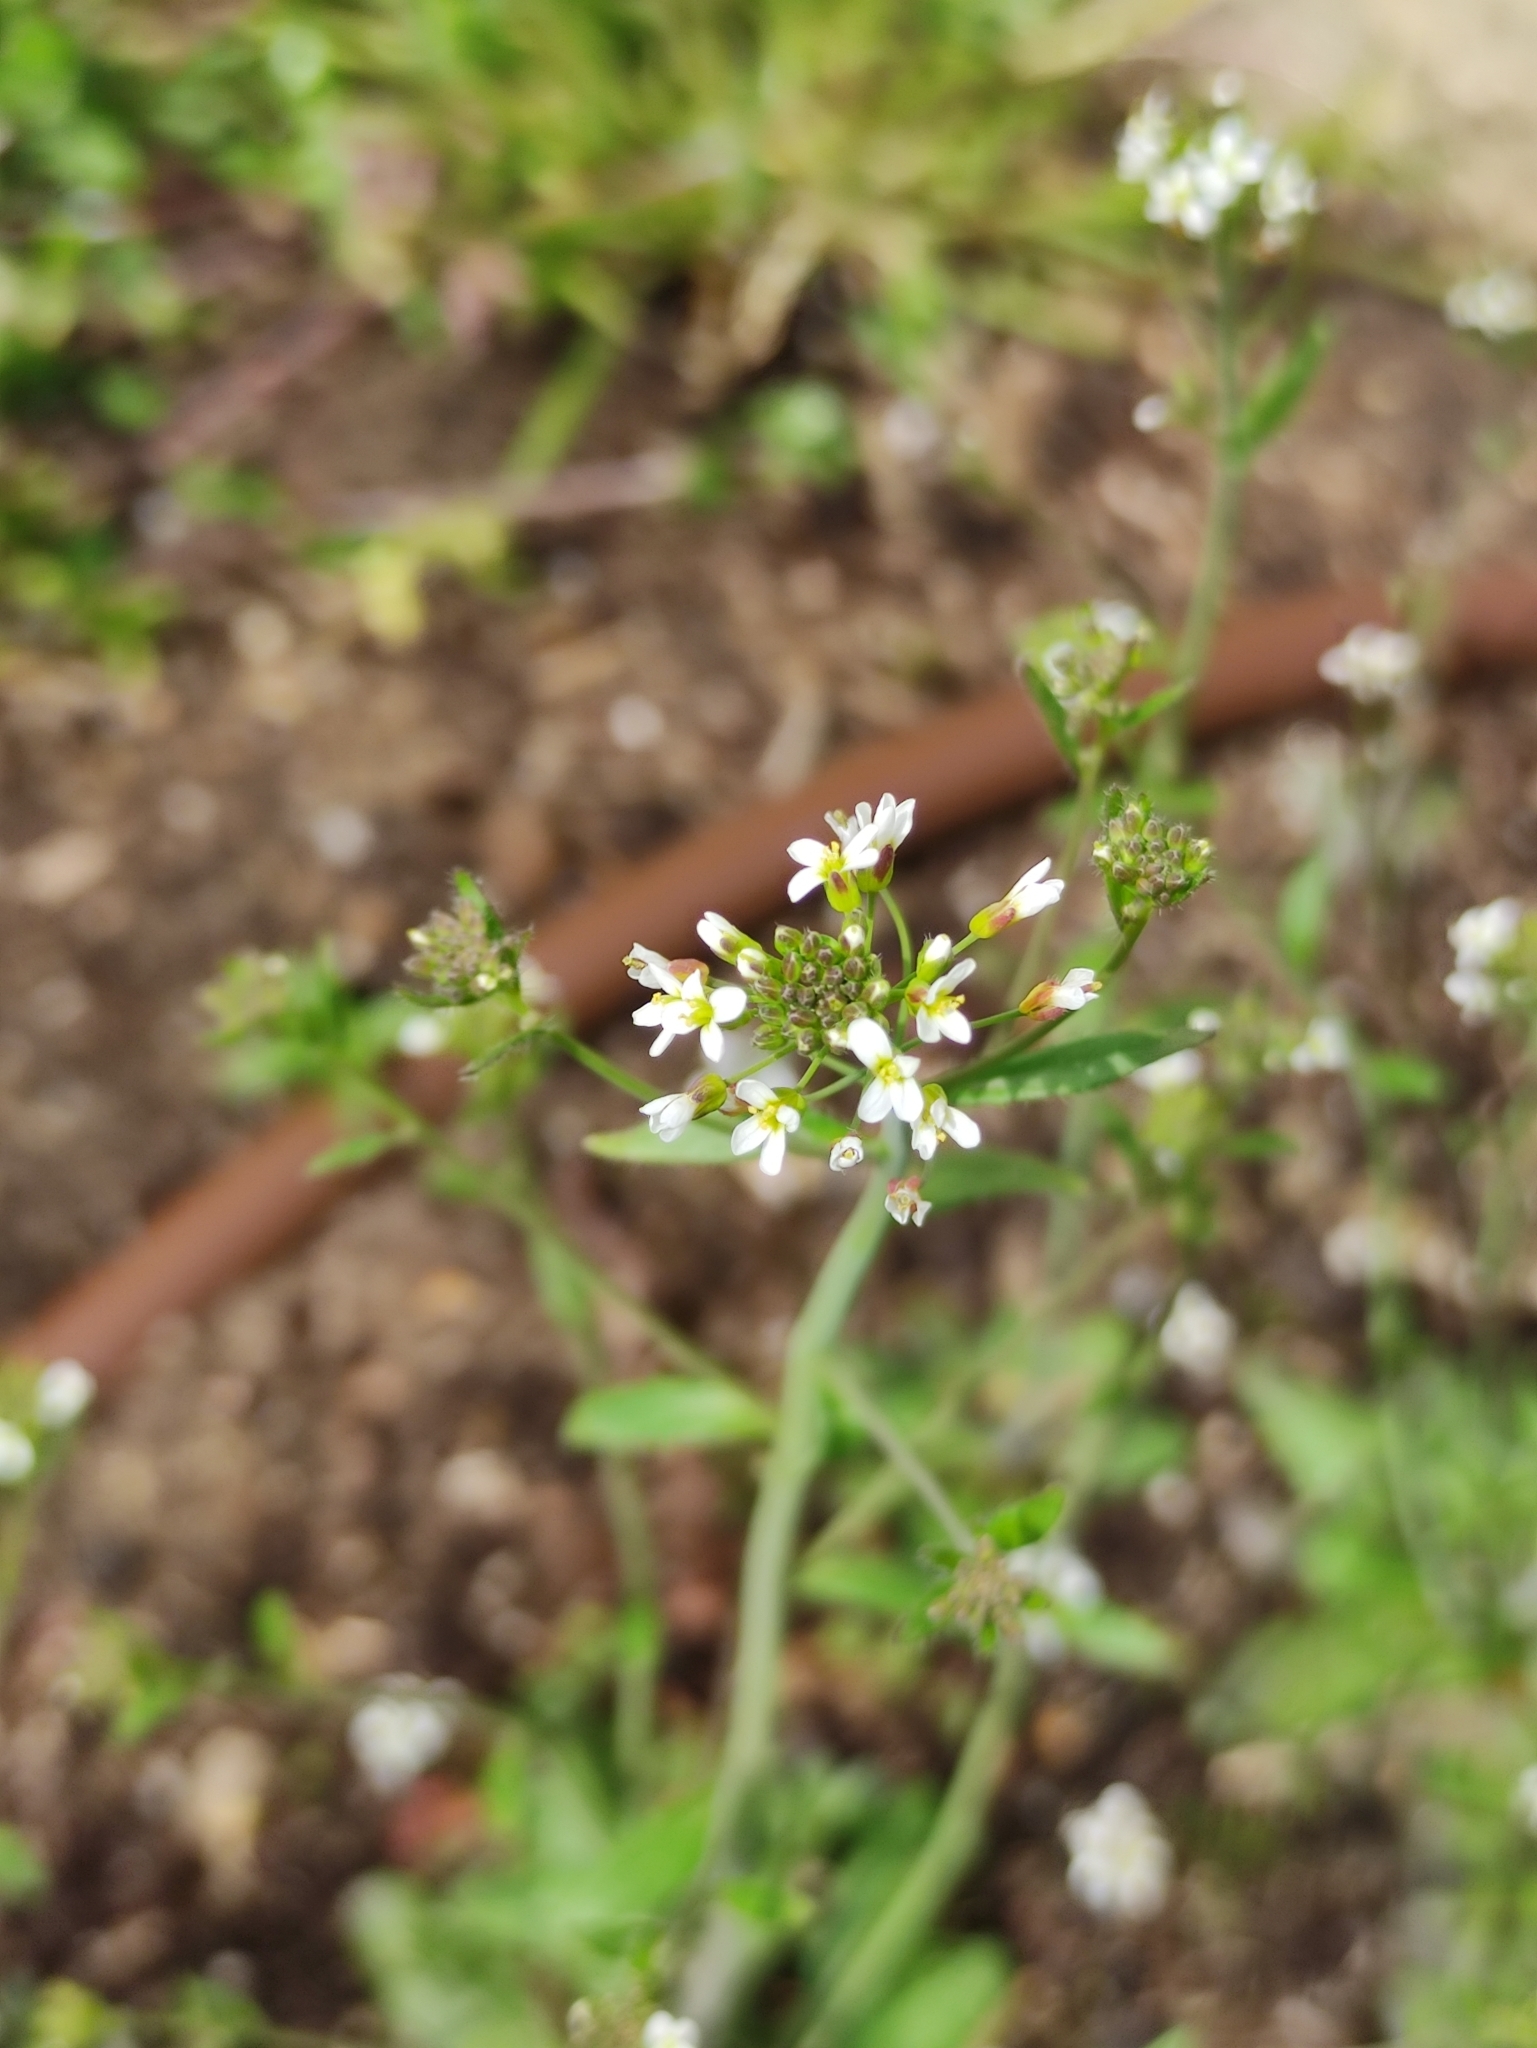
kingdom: Plantae
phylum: Tracheophyta
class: Magnoliopsida
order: Brassicales
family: Brassicaceae
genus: Arabidopsis
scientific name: Arabidopsis thaliana
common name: Thale cress
